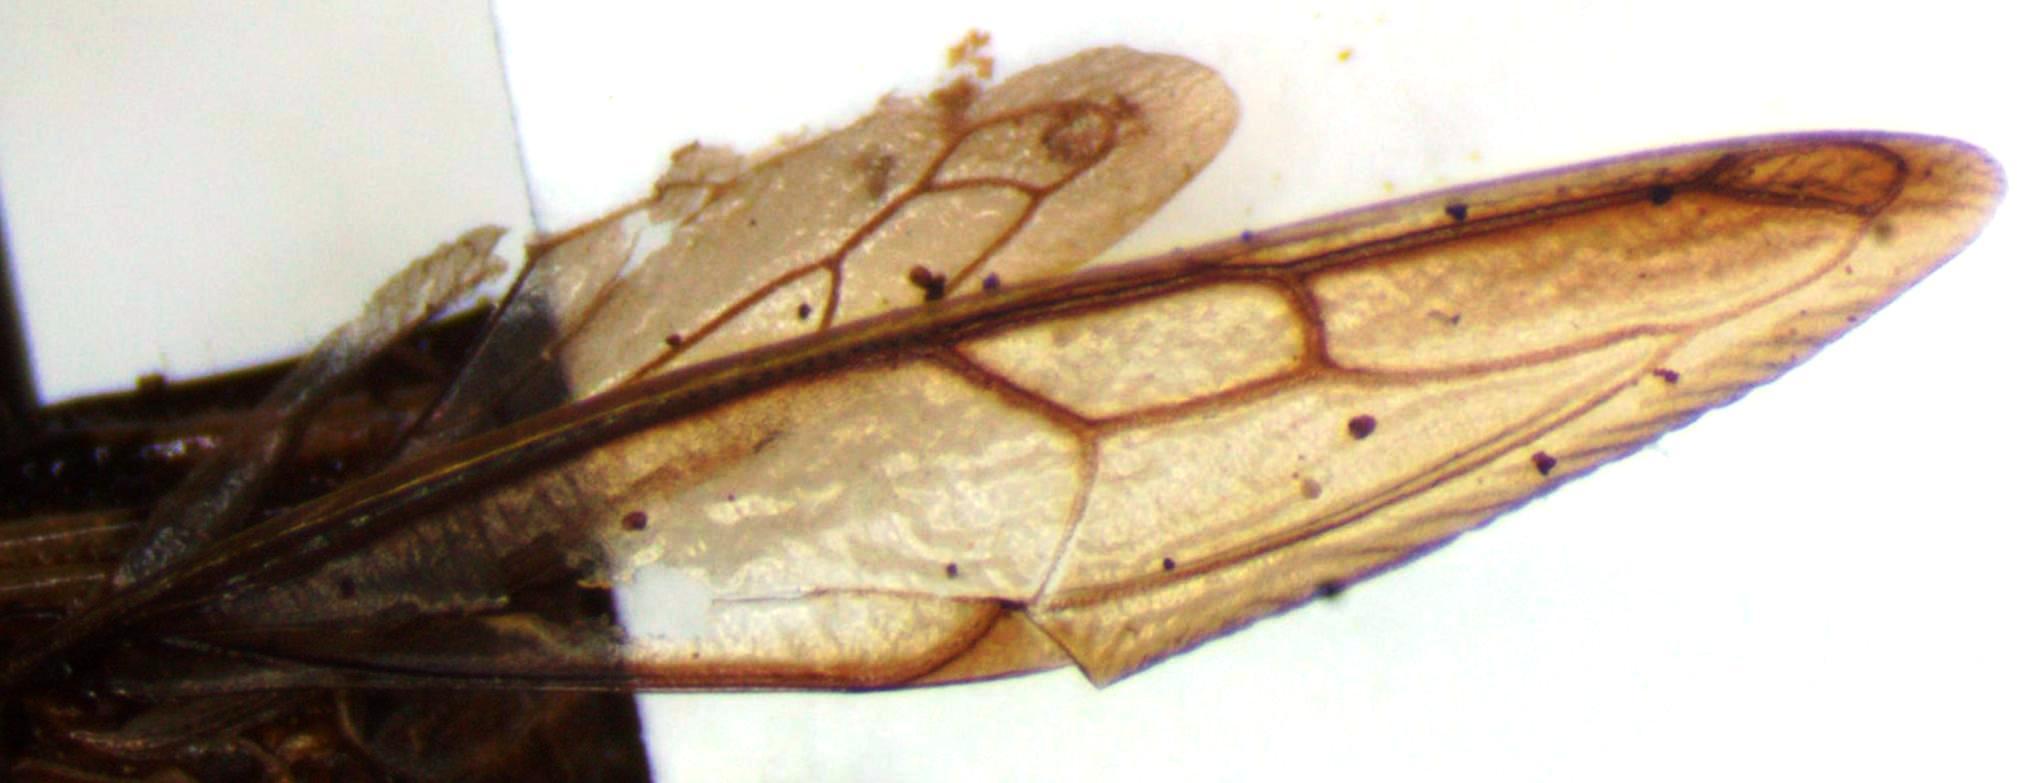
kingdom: Animalia
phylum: Arthropoda
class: Insecta
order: Hemiptera
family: Membracidae
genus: Polyglypta
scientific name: Polyglypta costata
